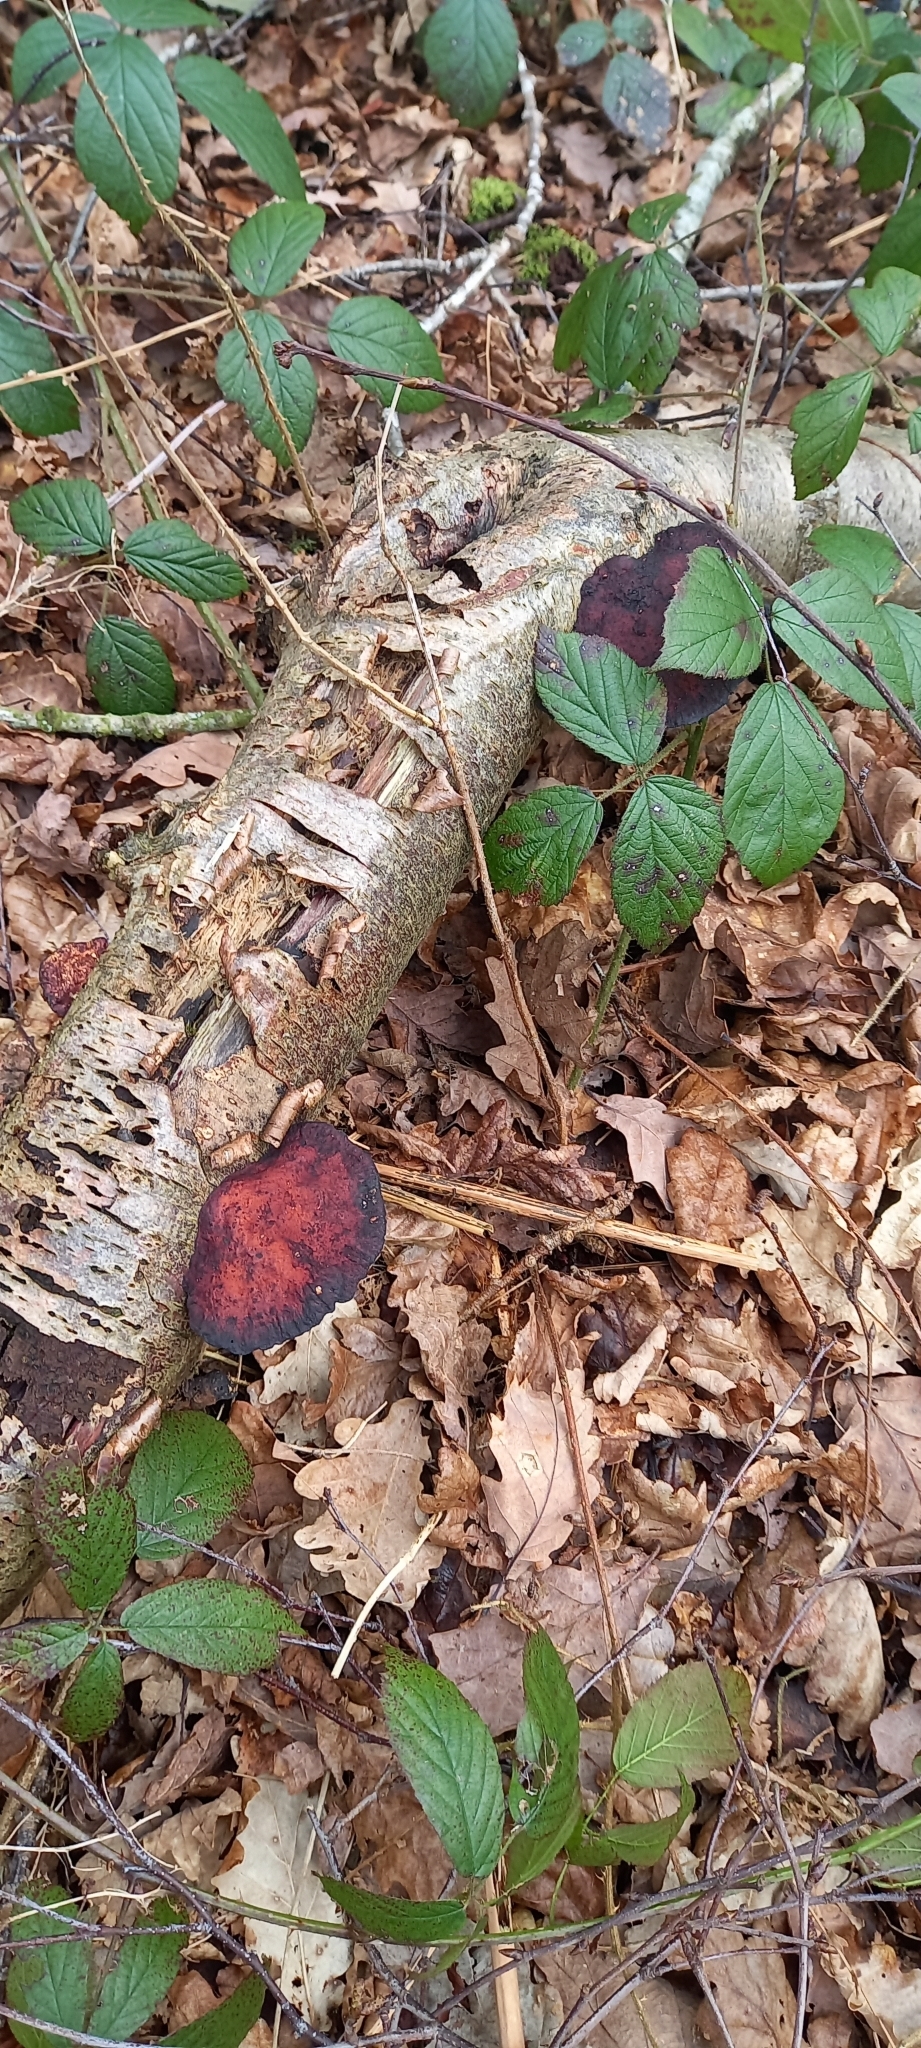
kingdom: Fungi
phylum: Basidiomycota
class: Agaricomycetes
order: Polyporales
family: Polyporaceae
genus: Daedaleopsis
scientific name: Daedaleopsis confragosa
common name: Blushing bracket
